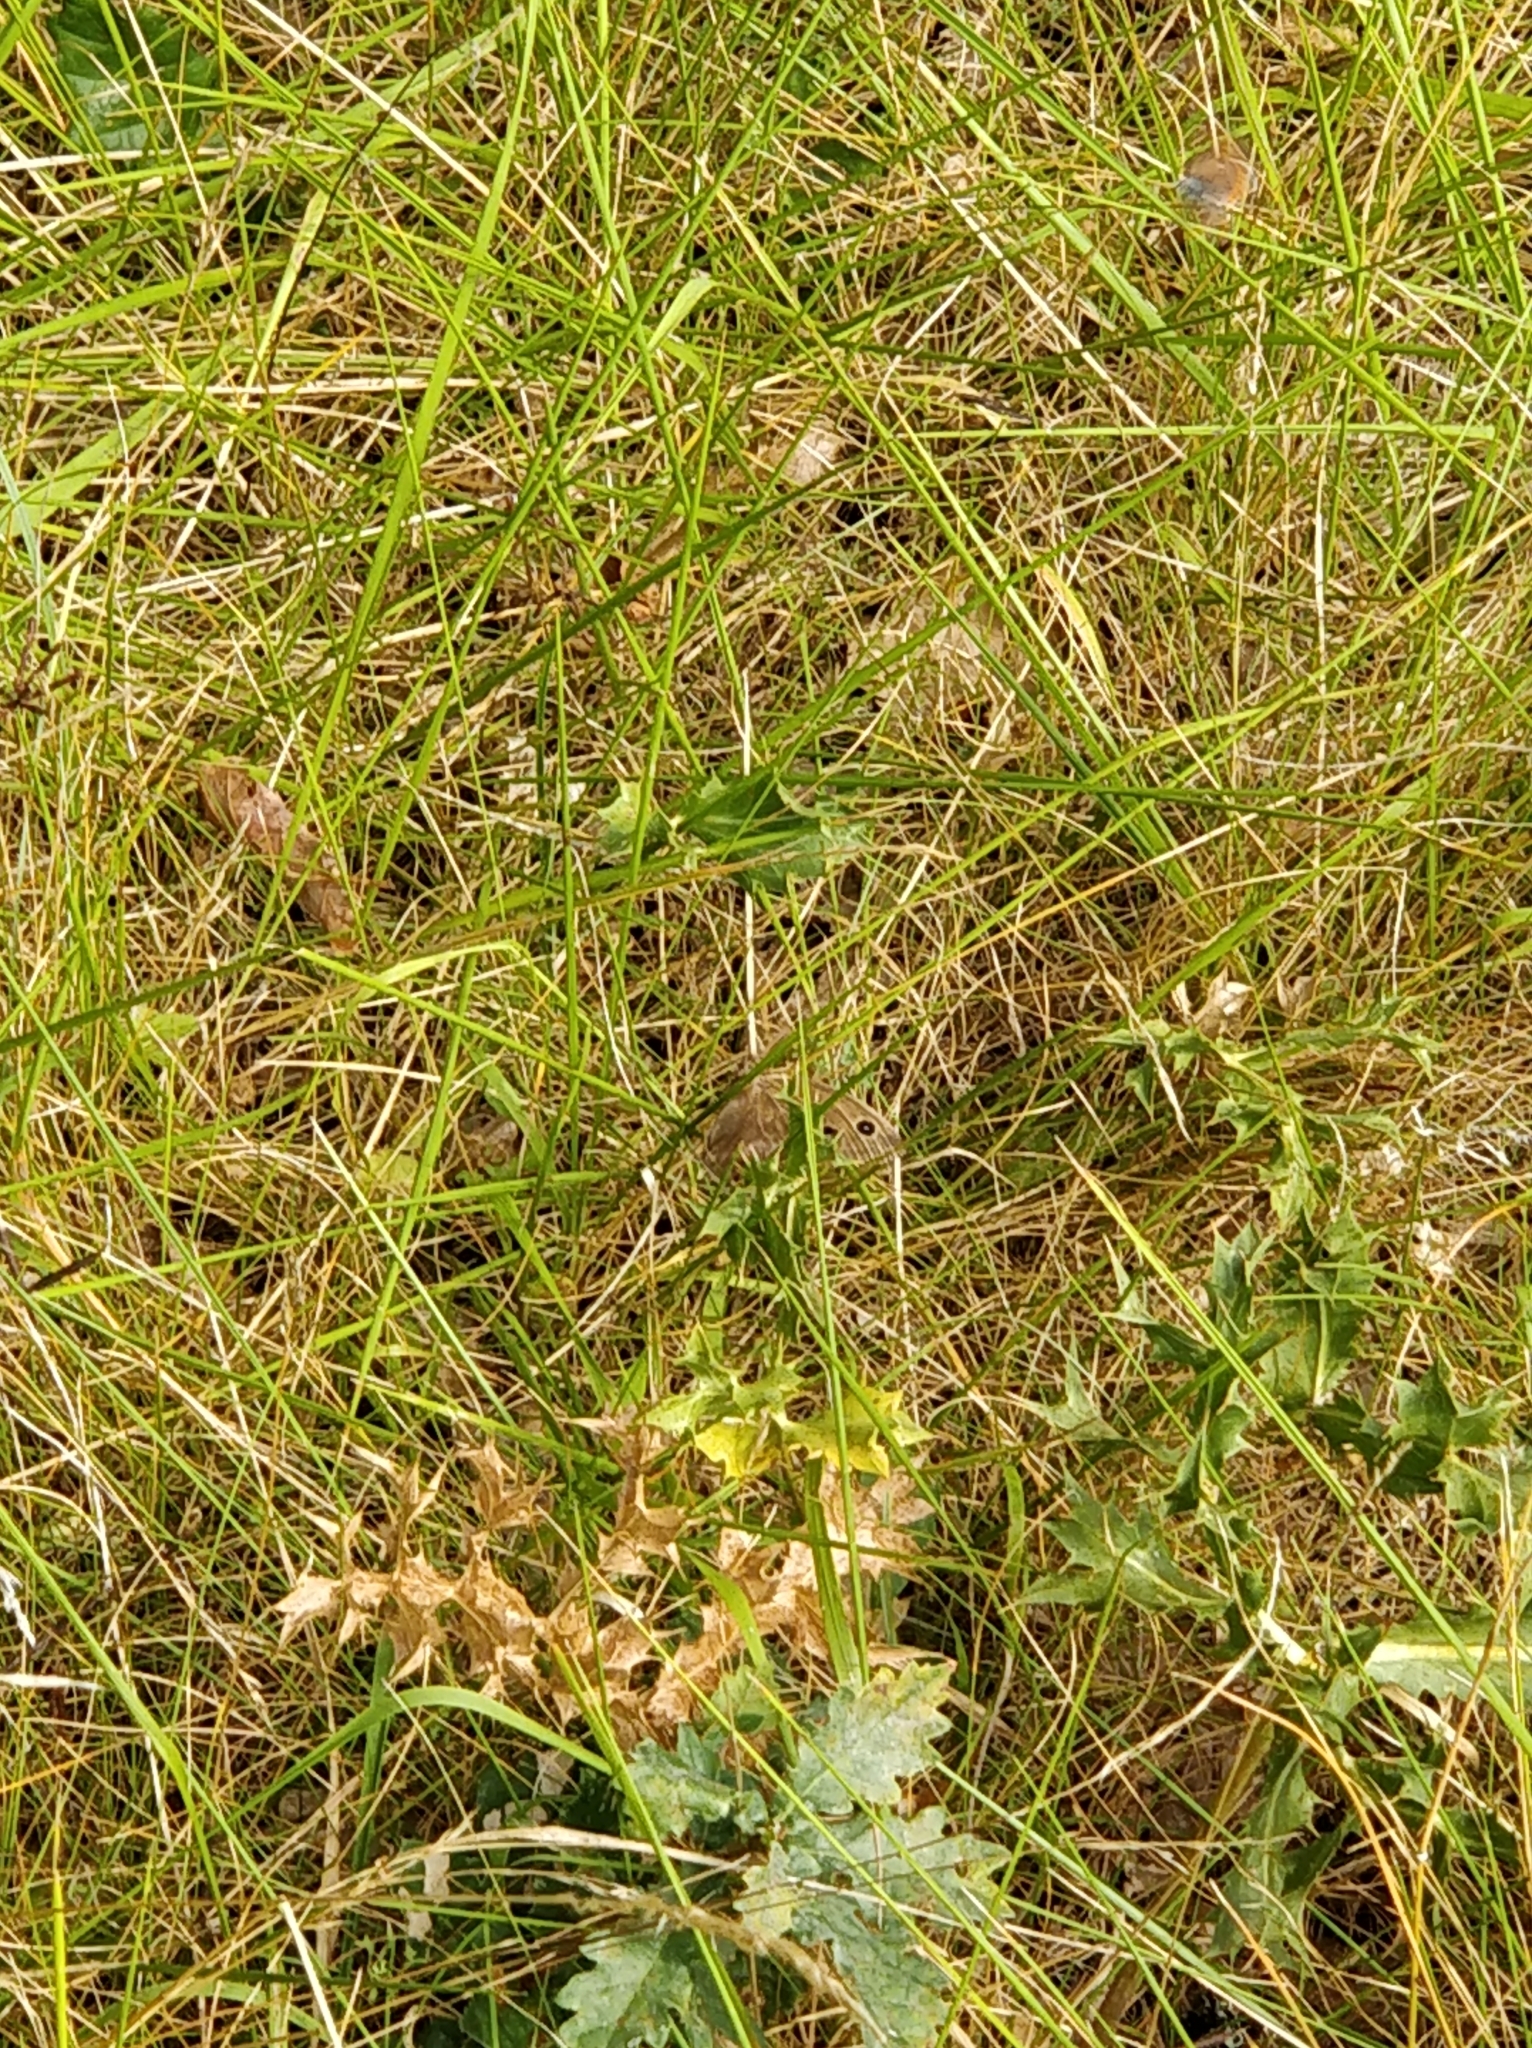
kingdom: Animalia
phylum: Arthropoda
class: Insecta
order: Lepidoptera
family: Nymphalidae
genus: Minois
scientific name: Minois dryas
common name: Dryad
